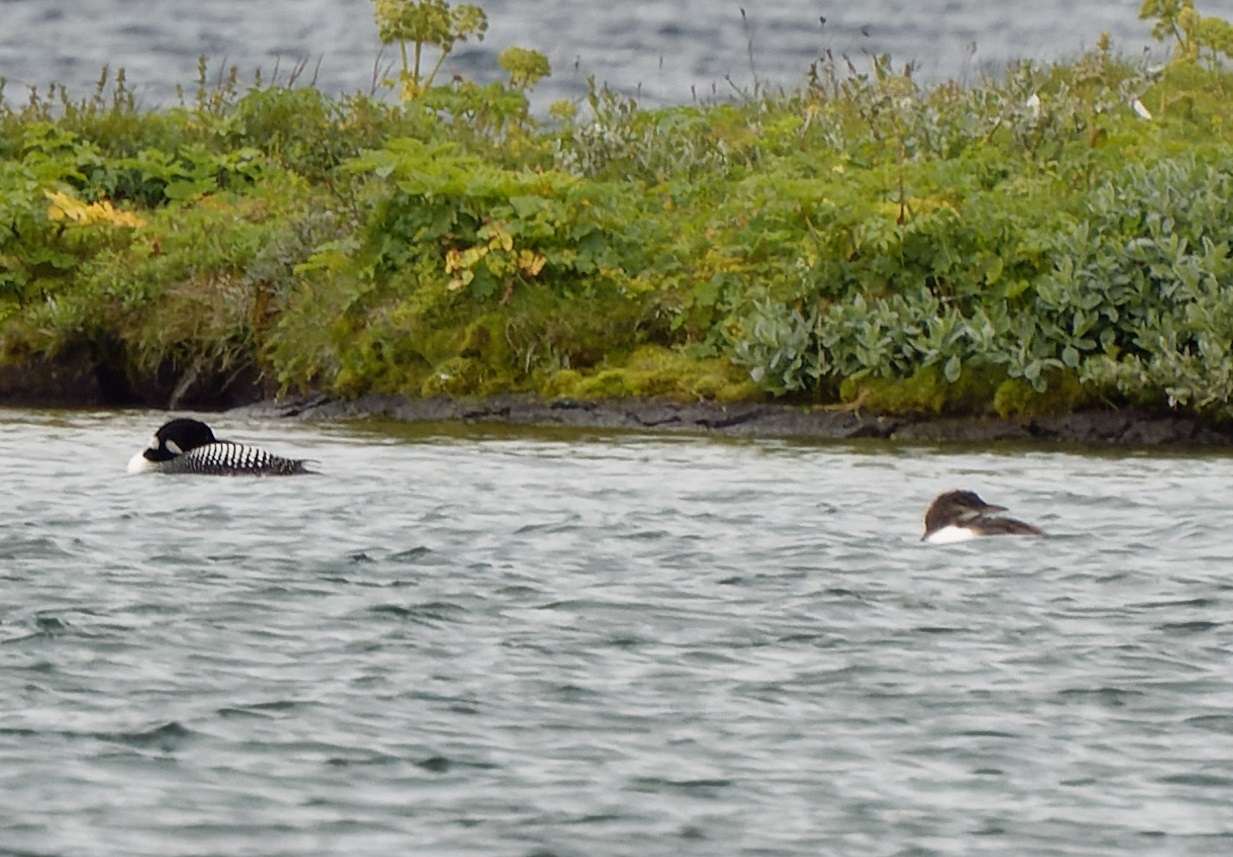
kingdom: Animalia
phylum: Chordata
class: Aves
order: Gaviiformes
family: Gaviidae
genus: Gavia
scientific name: Gavia immer
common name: Common loon
